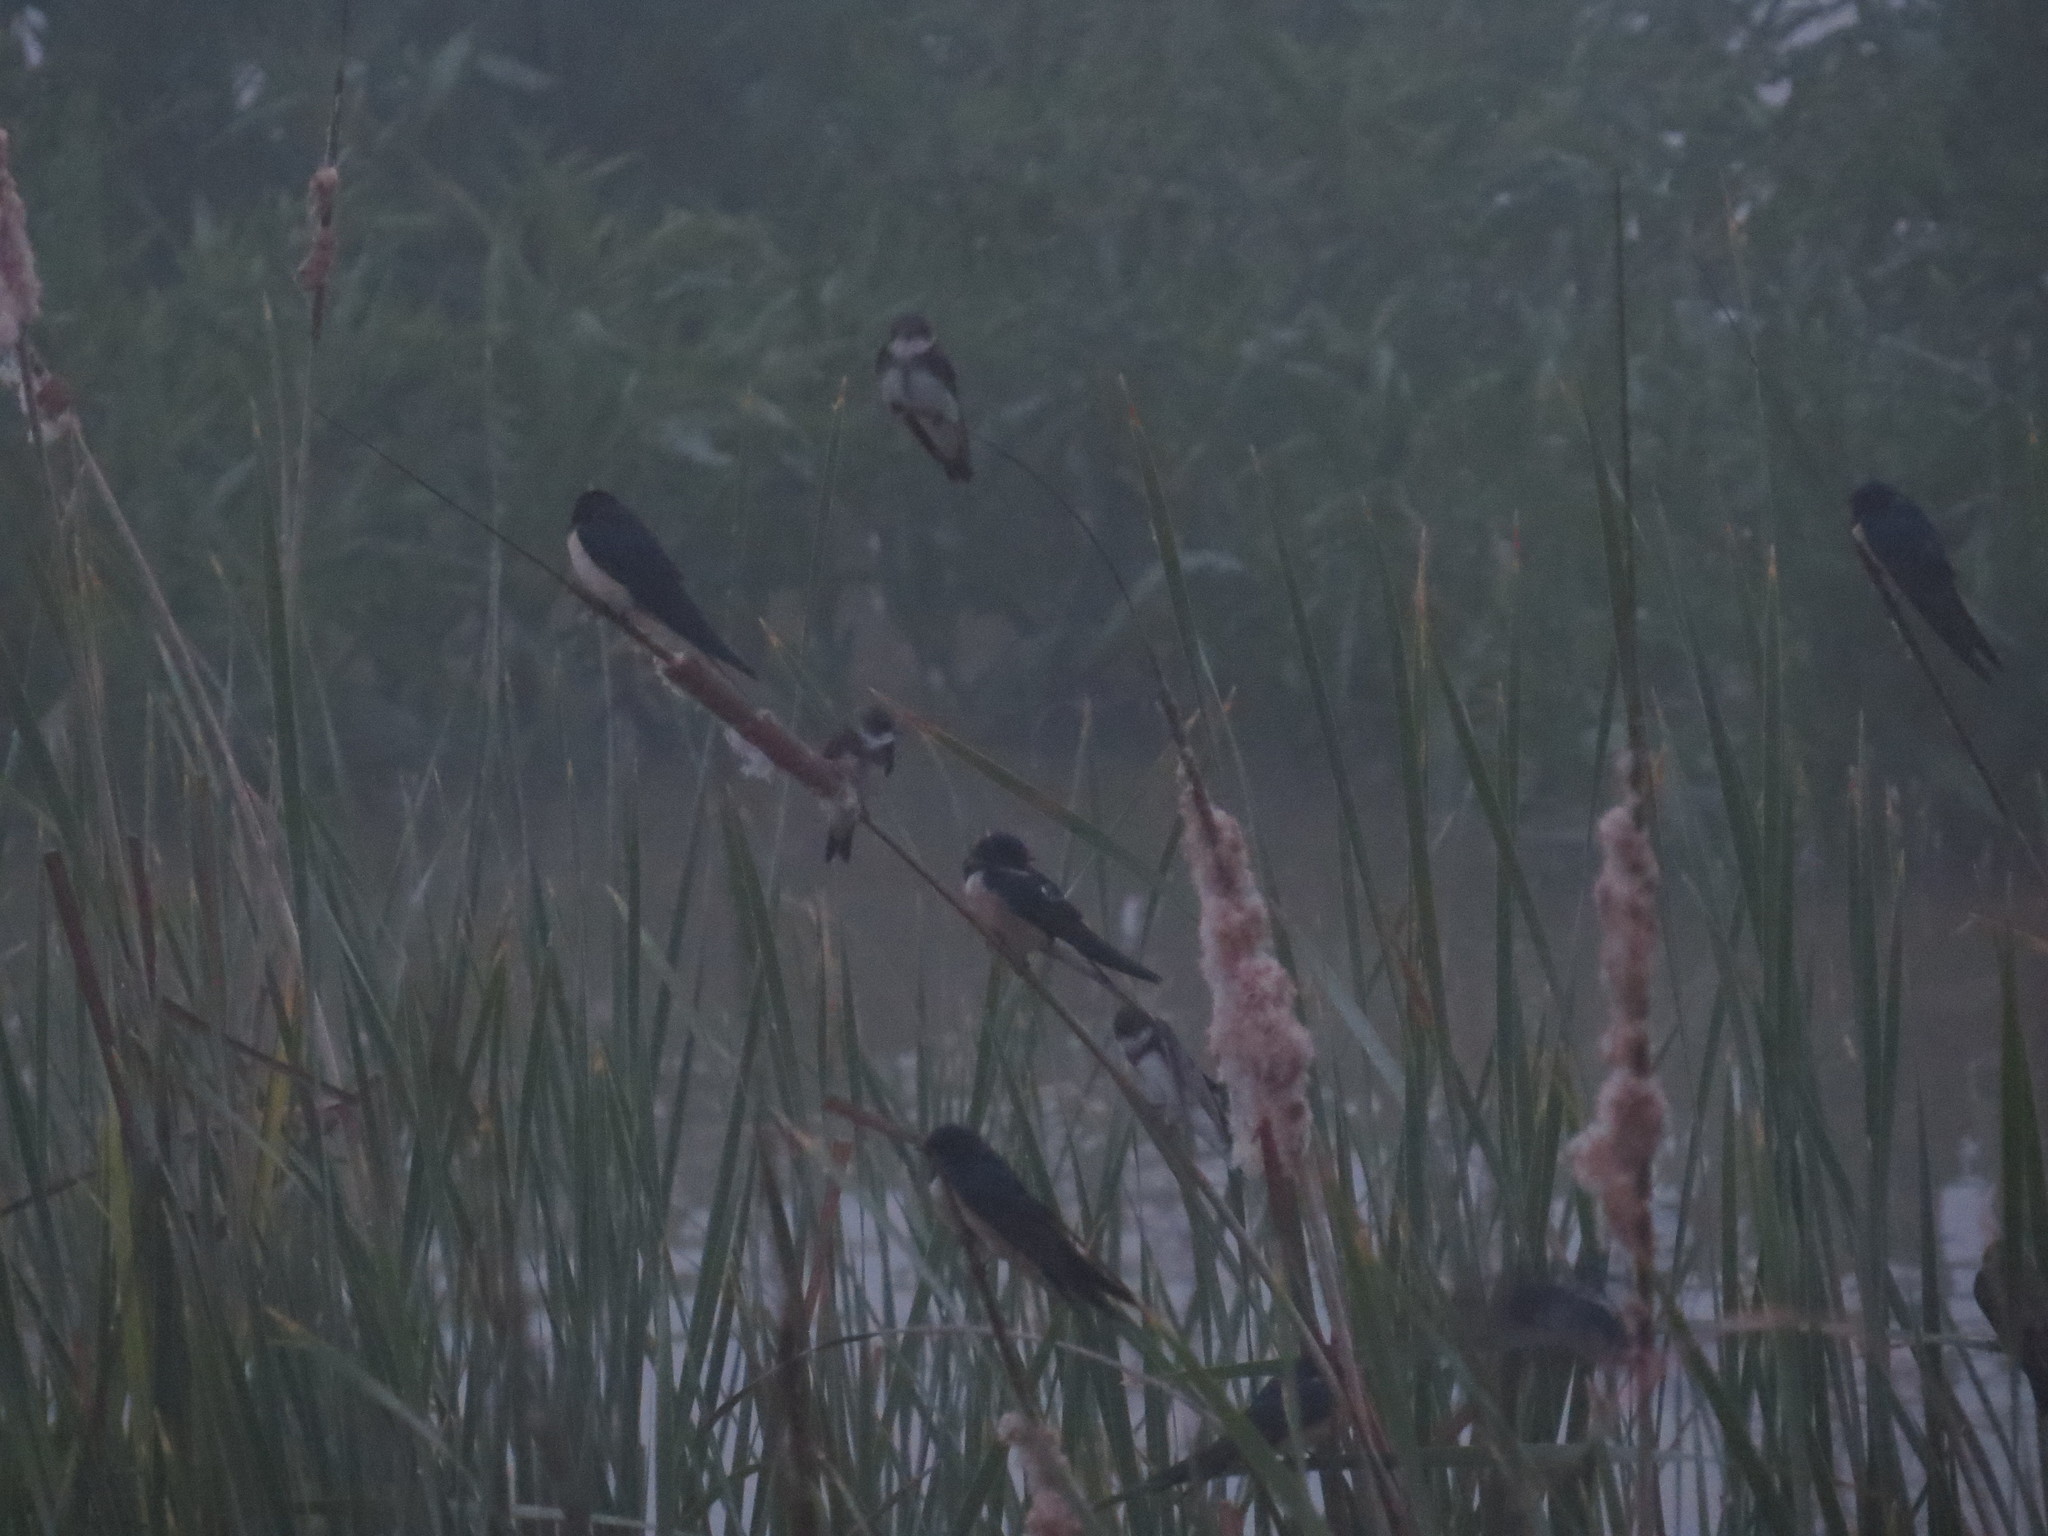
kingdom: Animalia
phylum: Chordata
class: Aves
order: Passeriformes
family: Hirundinidae
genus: Riparia
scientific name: Riparia riparia
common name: Sand martin
